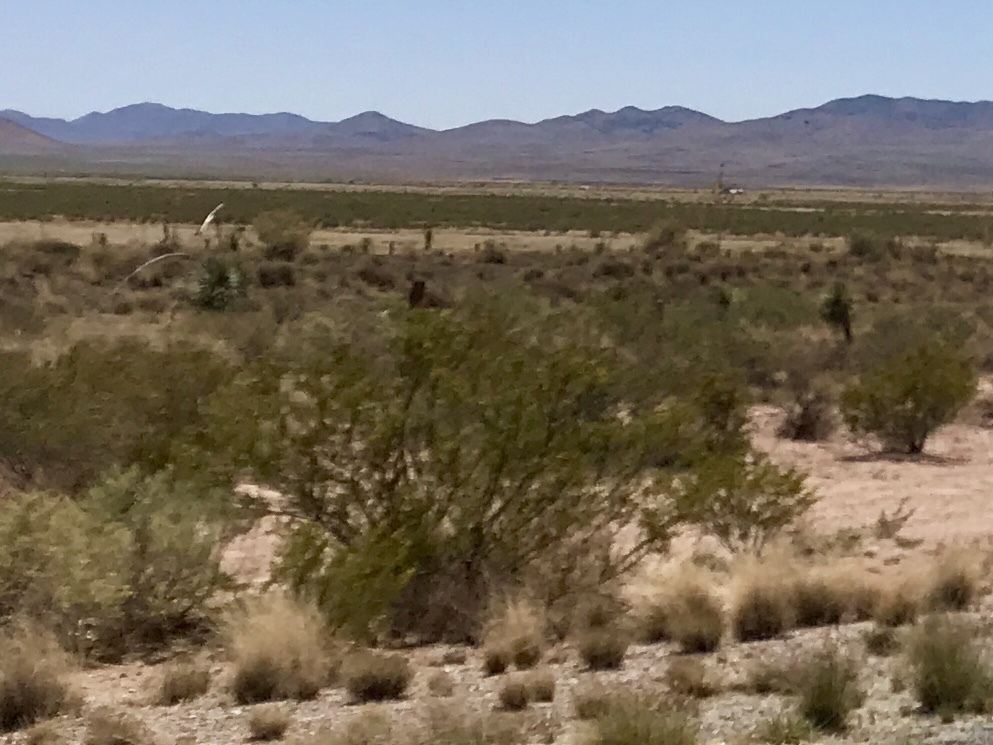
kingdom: Plantae
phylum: Tracheophyta
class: Magnoliopsida
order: Zygophyllales
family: Zygophyllaceae
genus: Larrea
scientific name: Larrea tridentata
